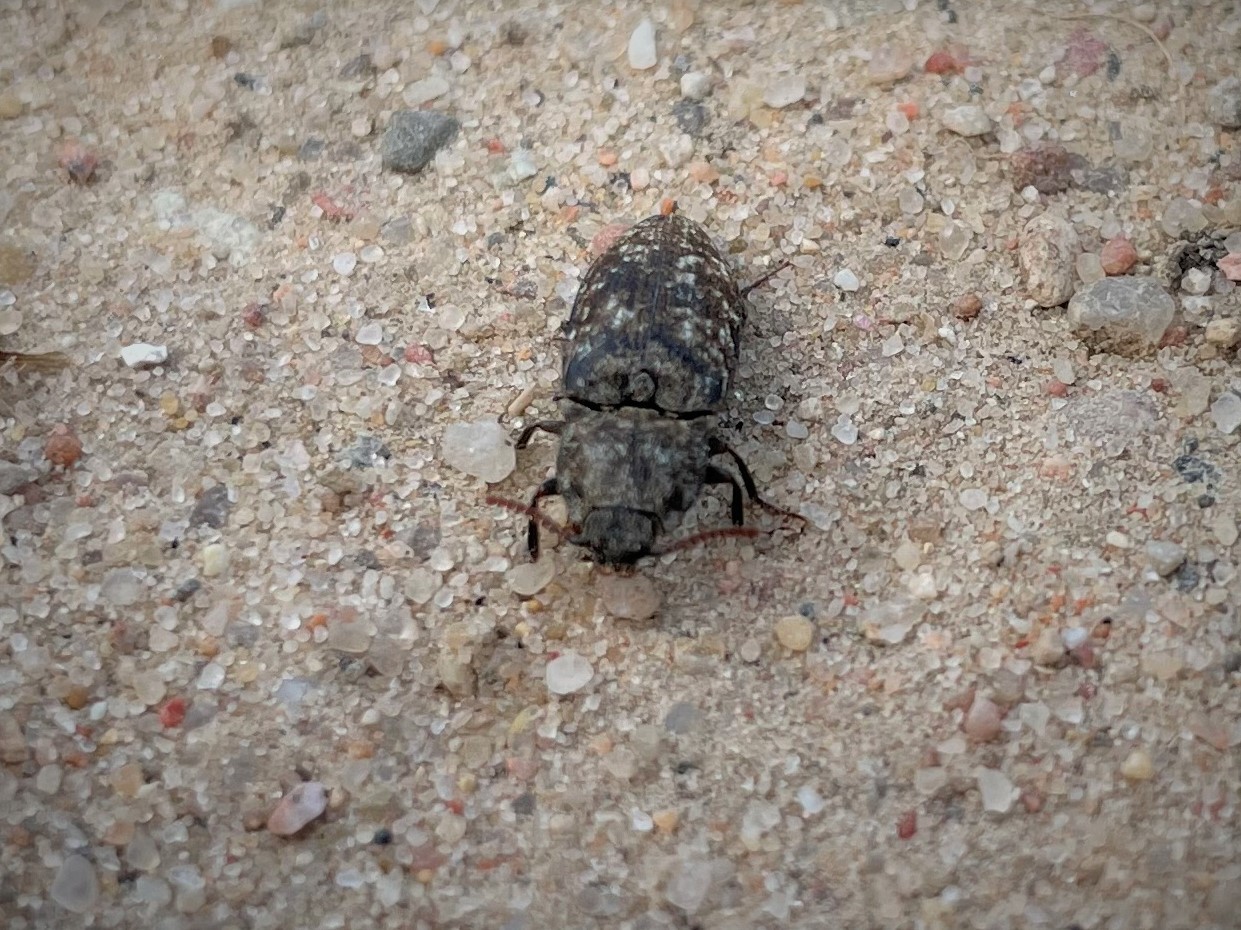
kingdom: Animalia
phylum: Arthropoda
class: Insecta
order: Coleoptera
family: Elateridae
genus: Agrypnus
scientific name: Agrypnus murinus
